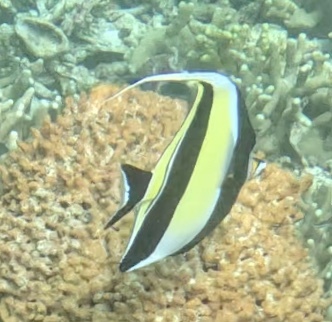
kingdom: Animalia
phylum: Chordata
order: Perciformes
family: Zanclidae
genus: Zanclus
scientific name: Zanclus cornutus
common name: Moorish idol
